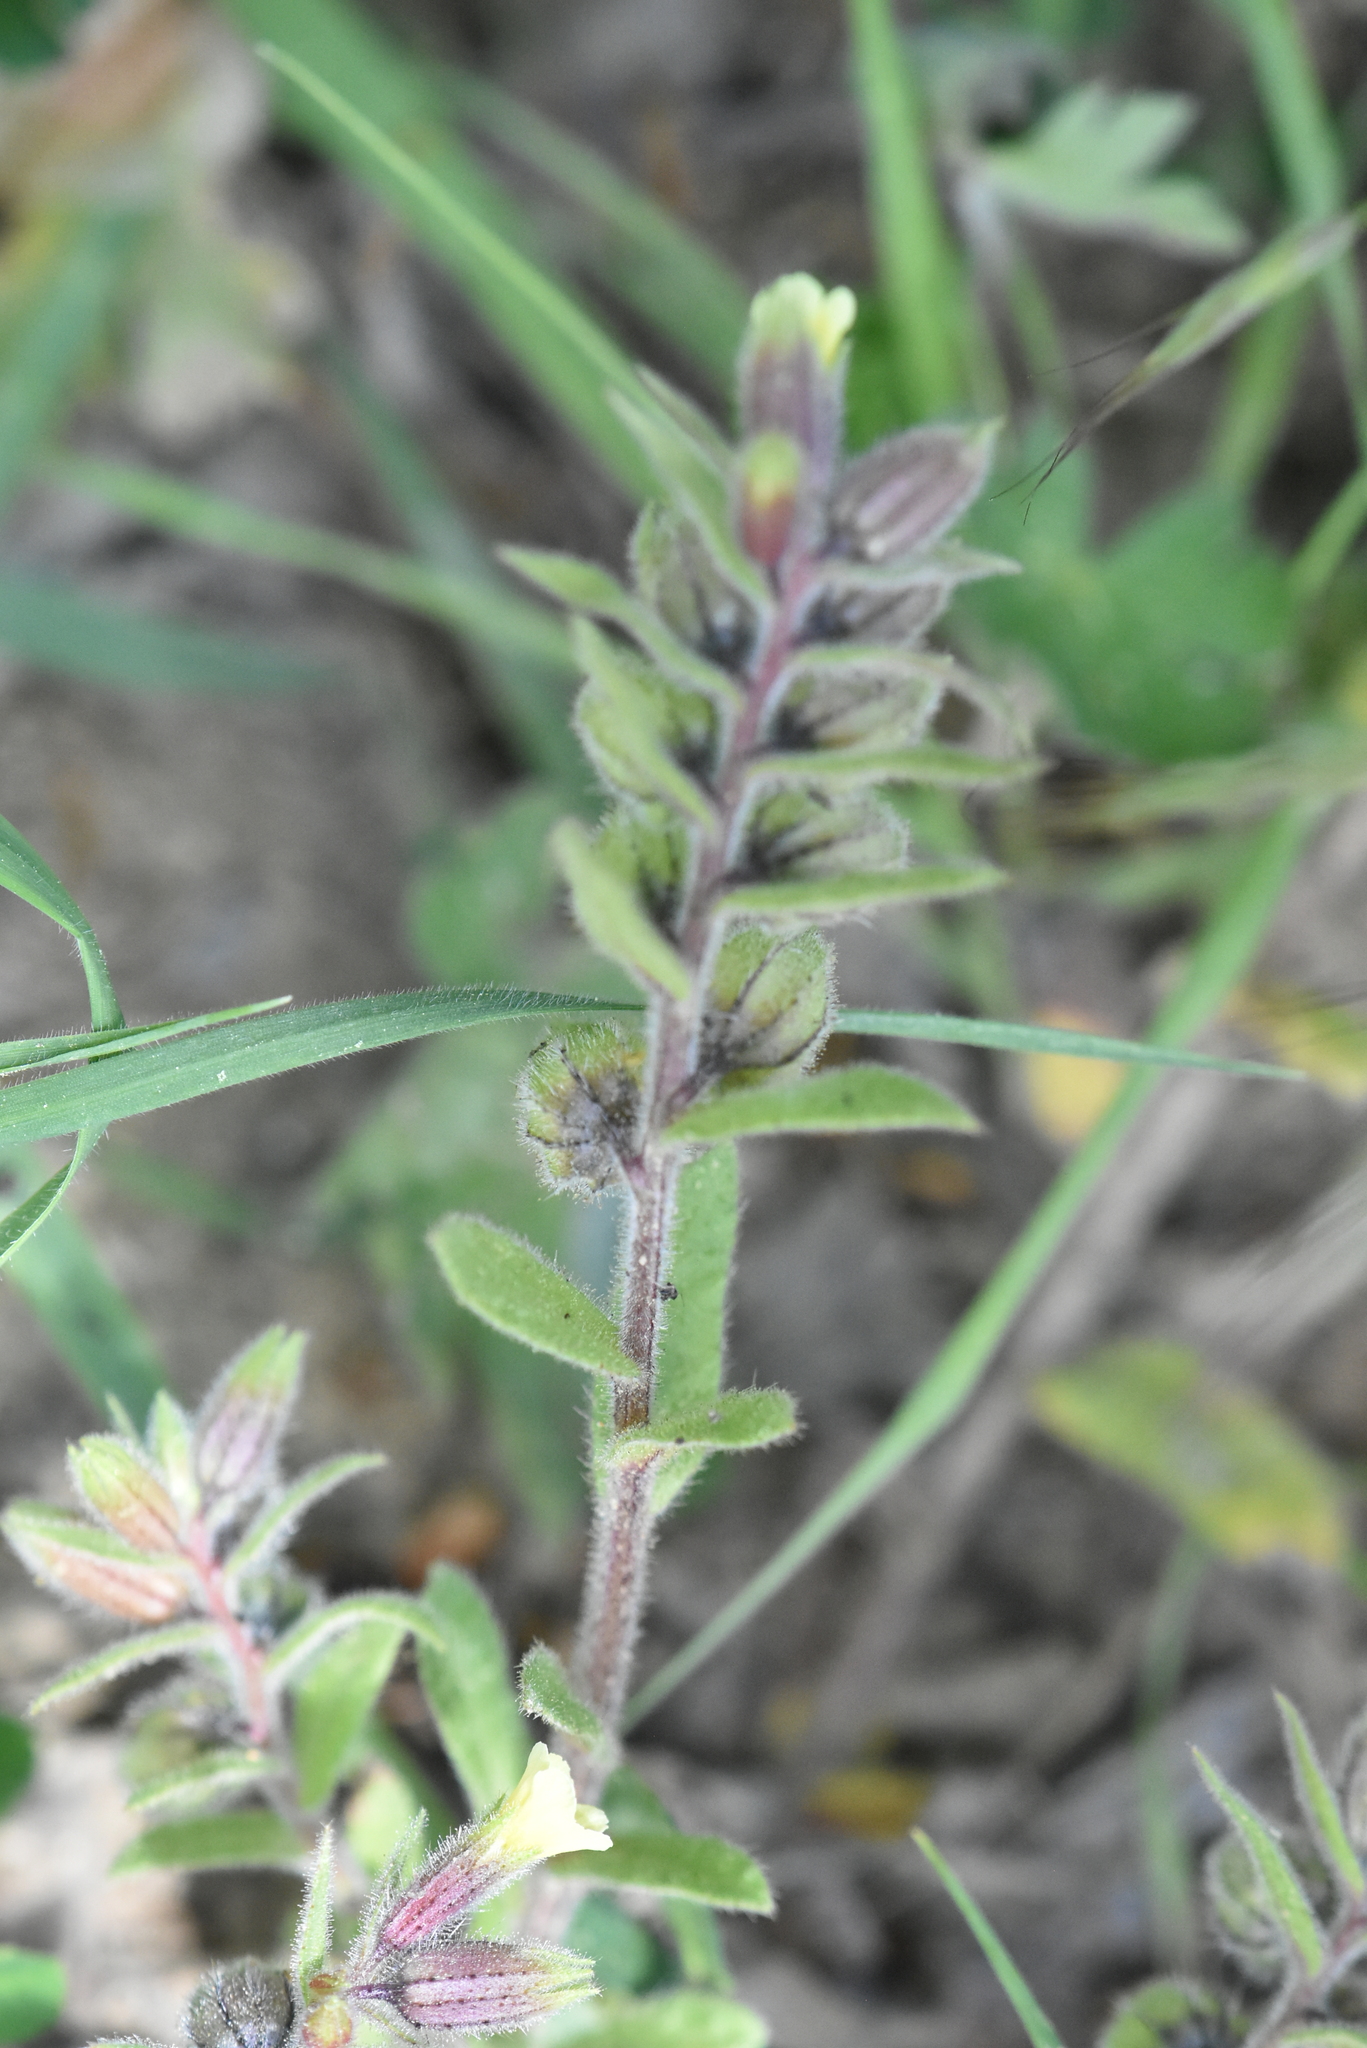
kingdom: Plantae
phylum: Tracheophyta
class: Magnoliopsida
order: Boraginales
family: Boraginaceae
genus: Nonea
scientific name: Nonea lutea
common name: Yellow nonea
